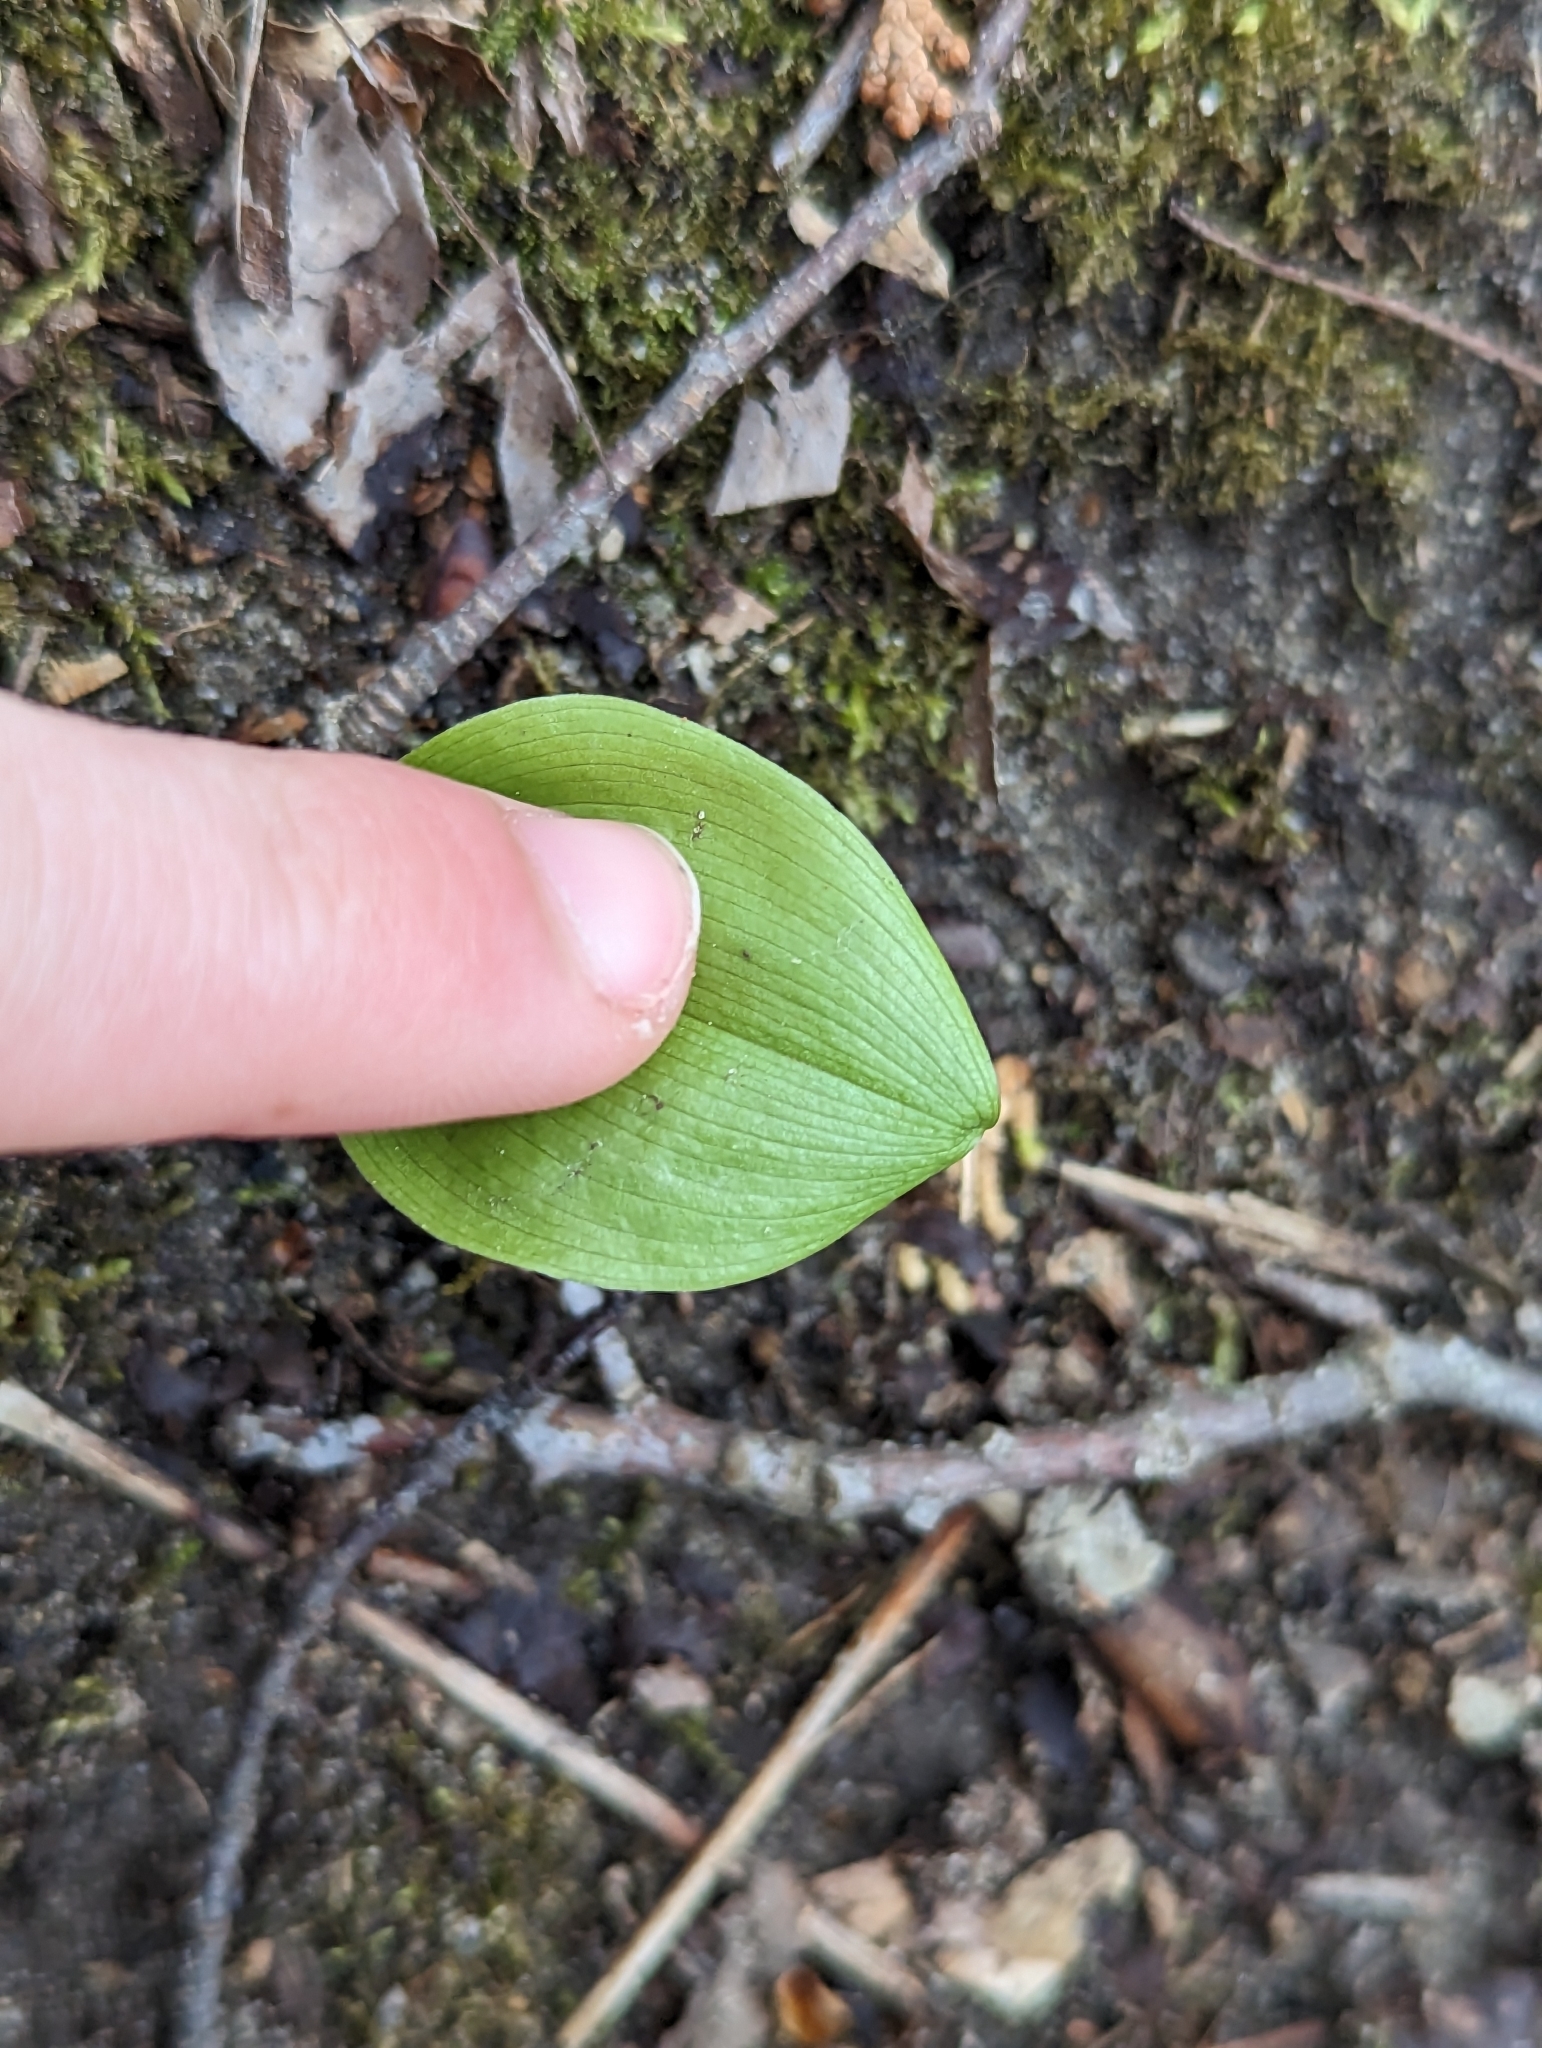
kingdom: Plantae
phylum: Tracheophyta
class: Liliopsida
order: Asparagales
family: Asparagaceae
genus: Maianthemum
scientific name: Maianthemum canadense
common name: False lily-of-the-valley
